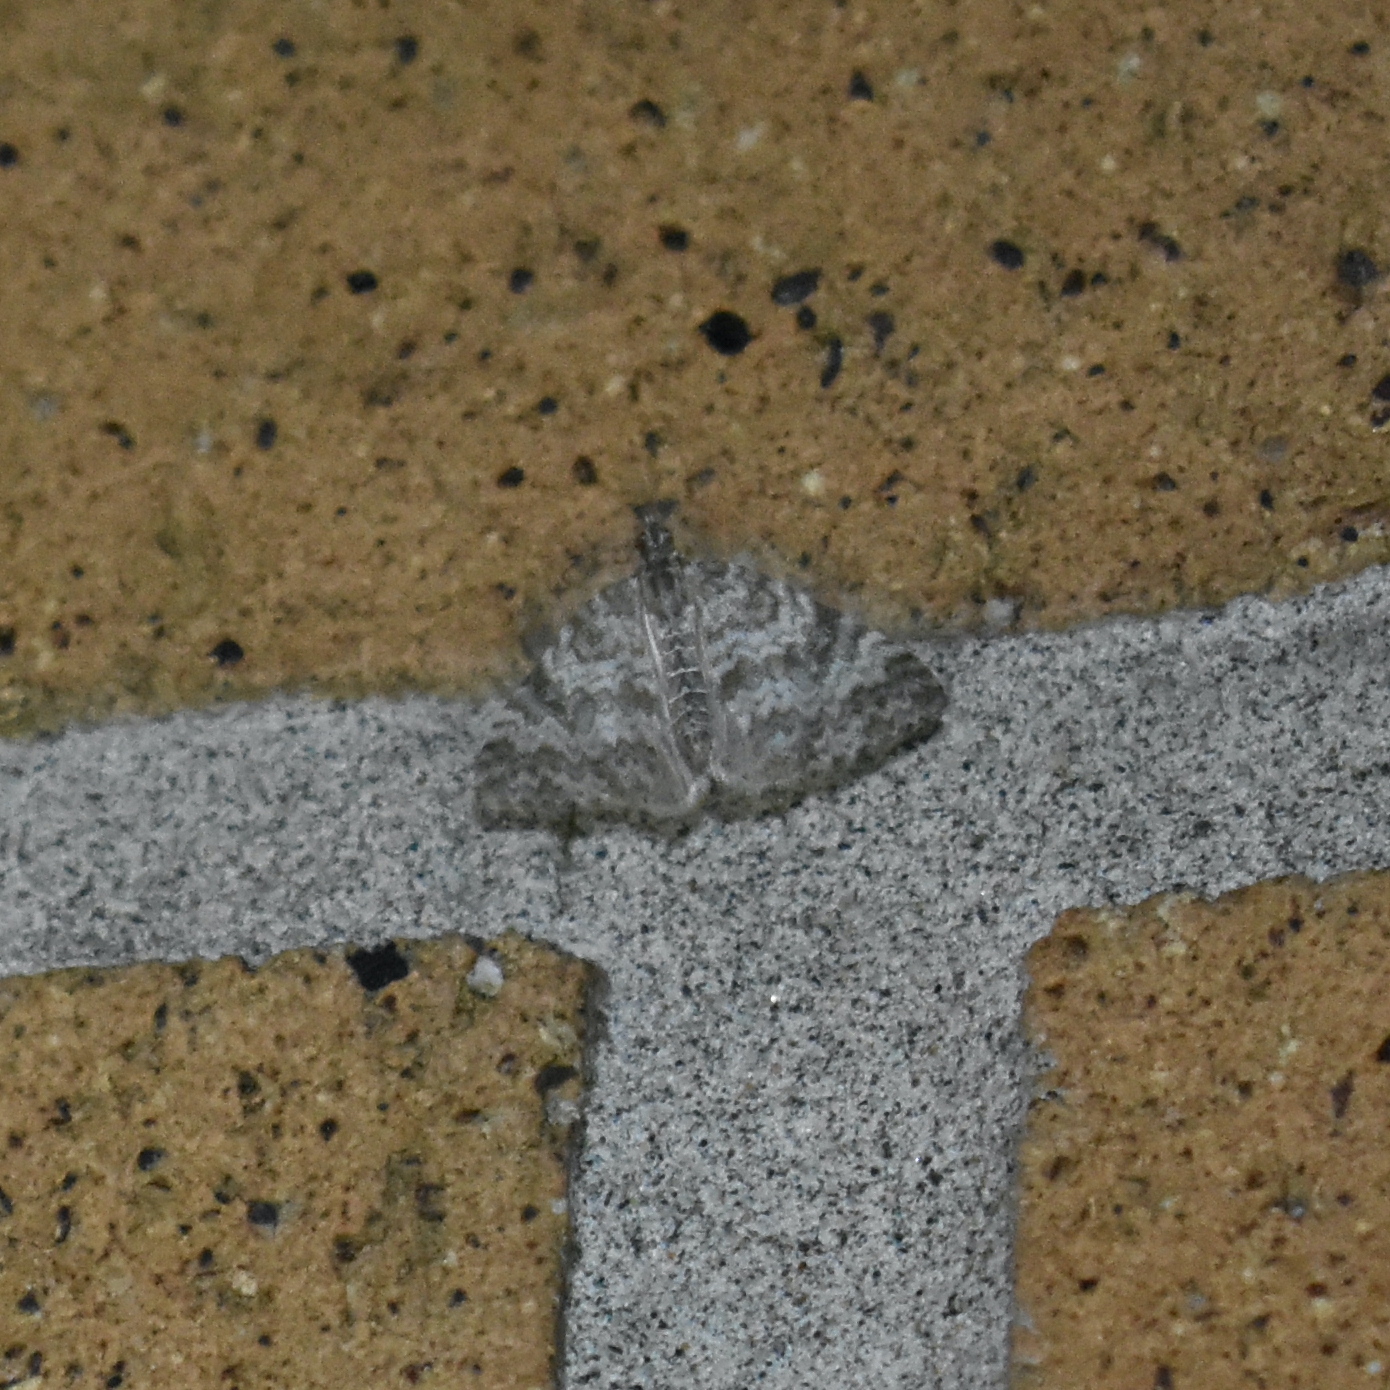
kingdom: Animalia
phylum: Arthropoda
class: Insecta
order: Lepidoptera
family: Geometridae
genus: Spargania
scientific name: Spargania magnoliata
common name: Double-banded carpet
